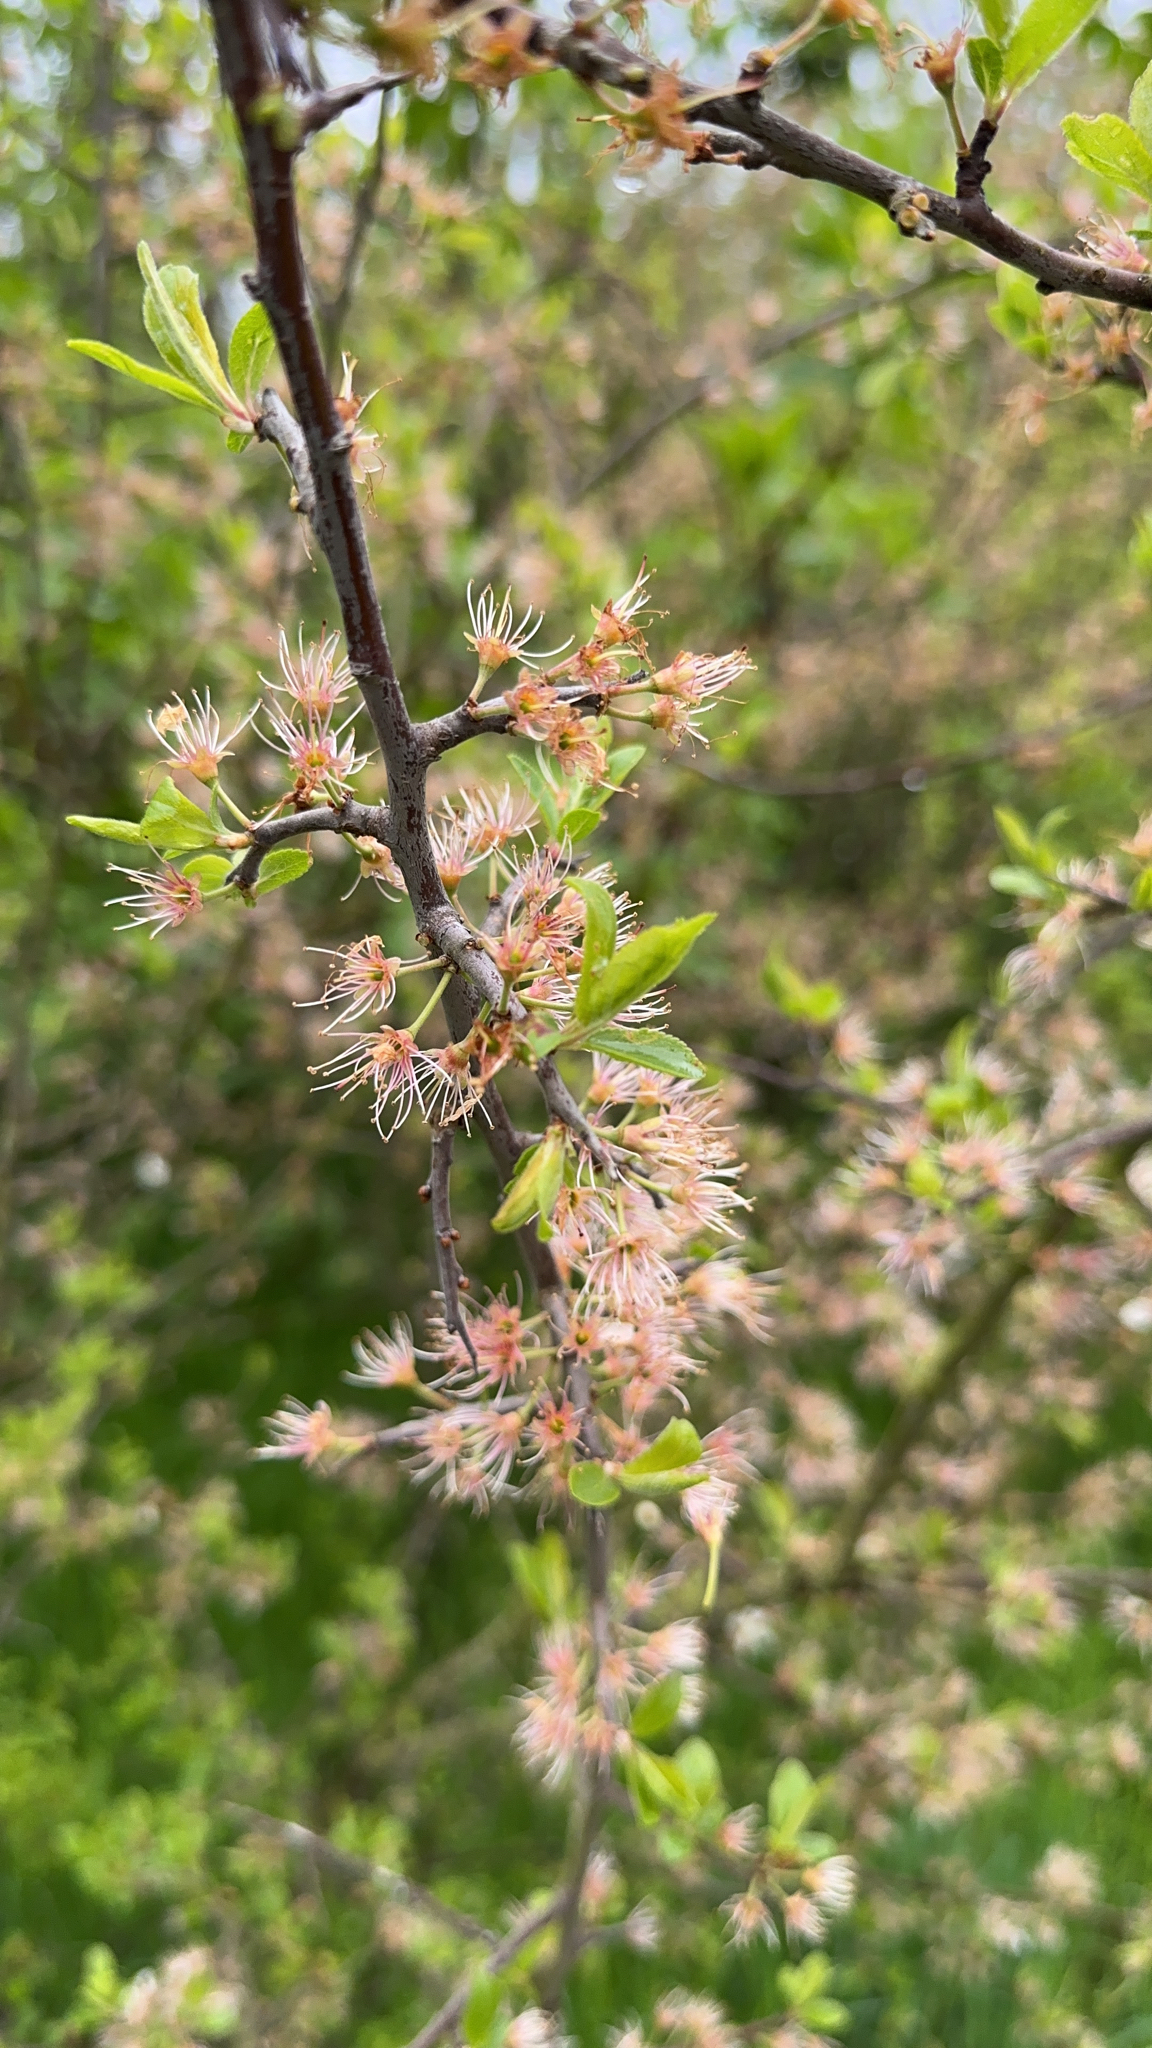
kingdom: Plantae
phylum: Tracheophyta
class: Magnoliopsida
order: Rosales
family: Rosaceae
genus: Prunus
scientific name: Prunus spinosa
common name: Blackthorn
